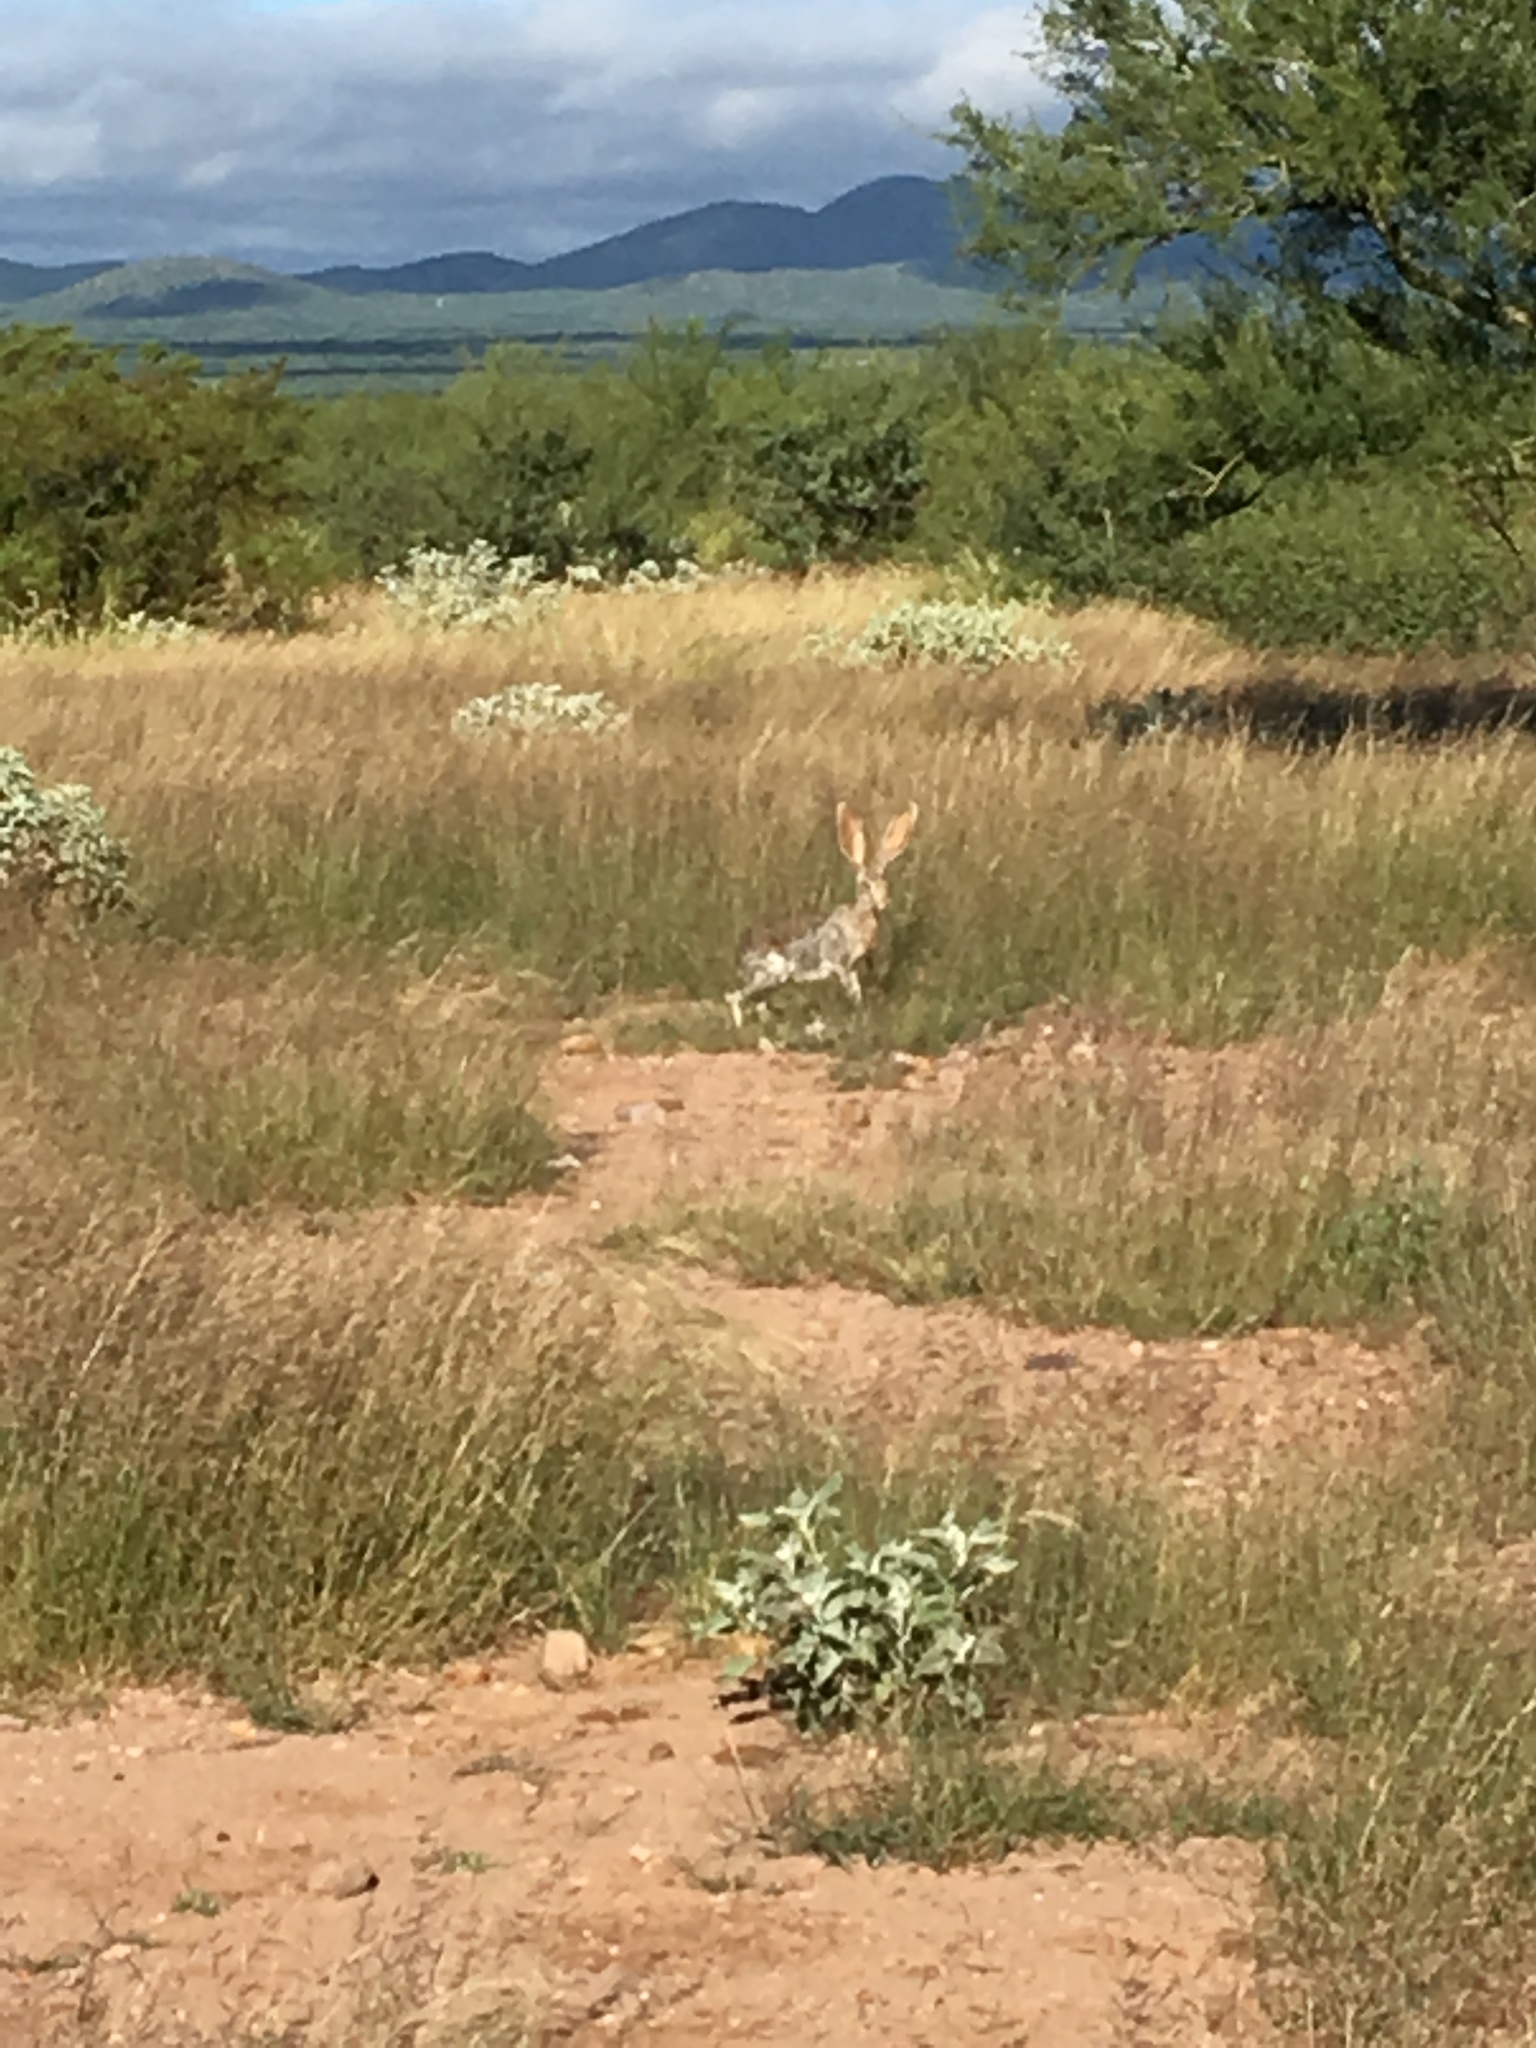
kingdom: Animalia
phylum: Chordata
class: Mammalia
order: Lagomorpha
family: Leporidae
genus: Lepus
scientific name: Lepus alleni
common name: Antelope jackrabbit
